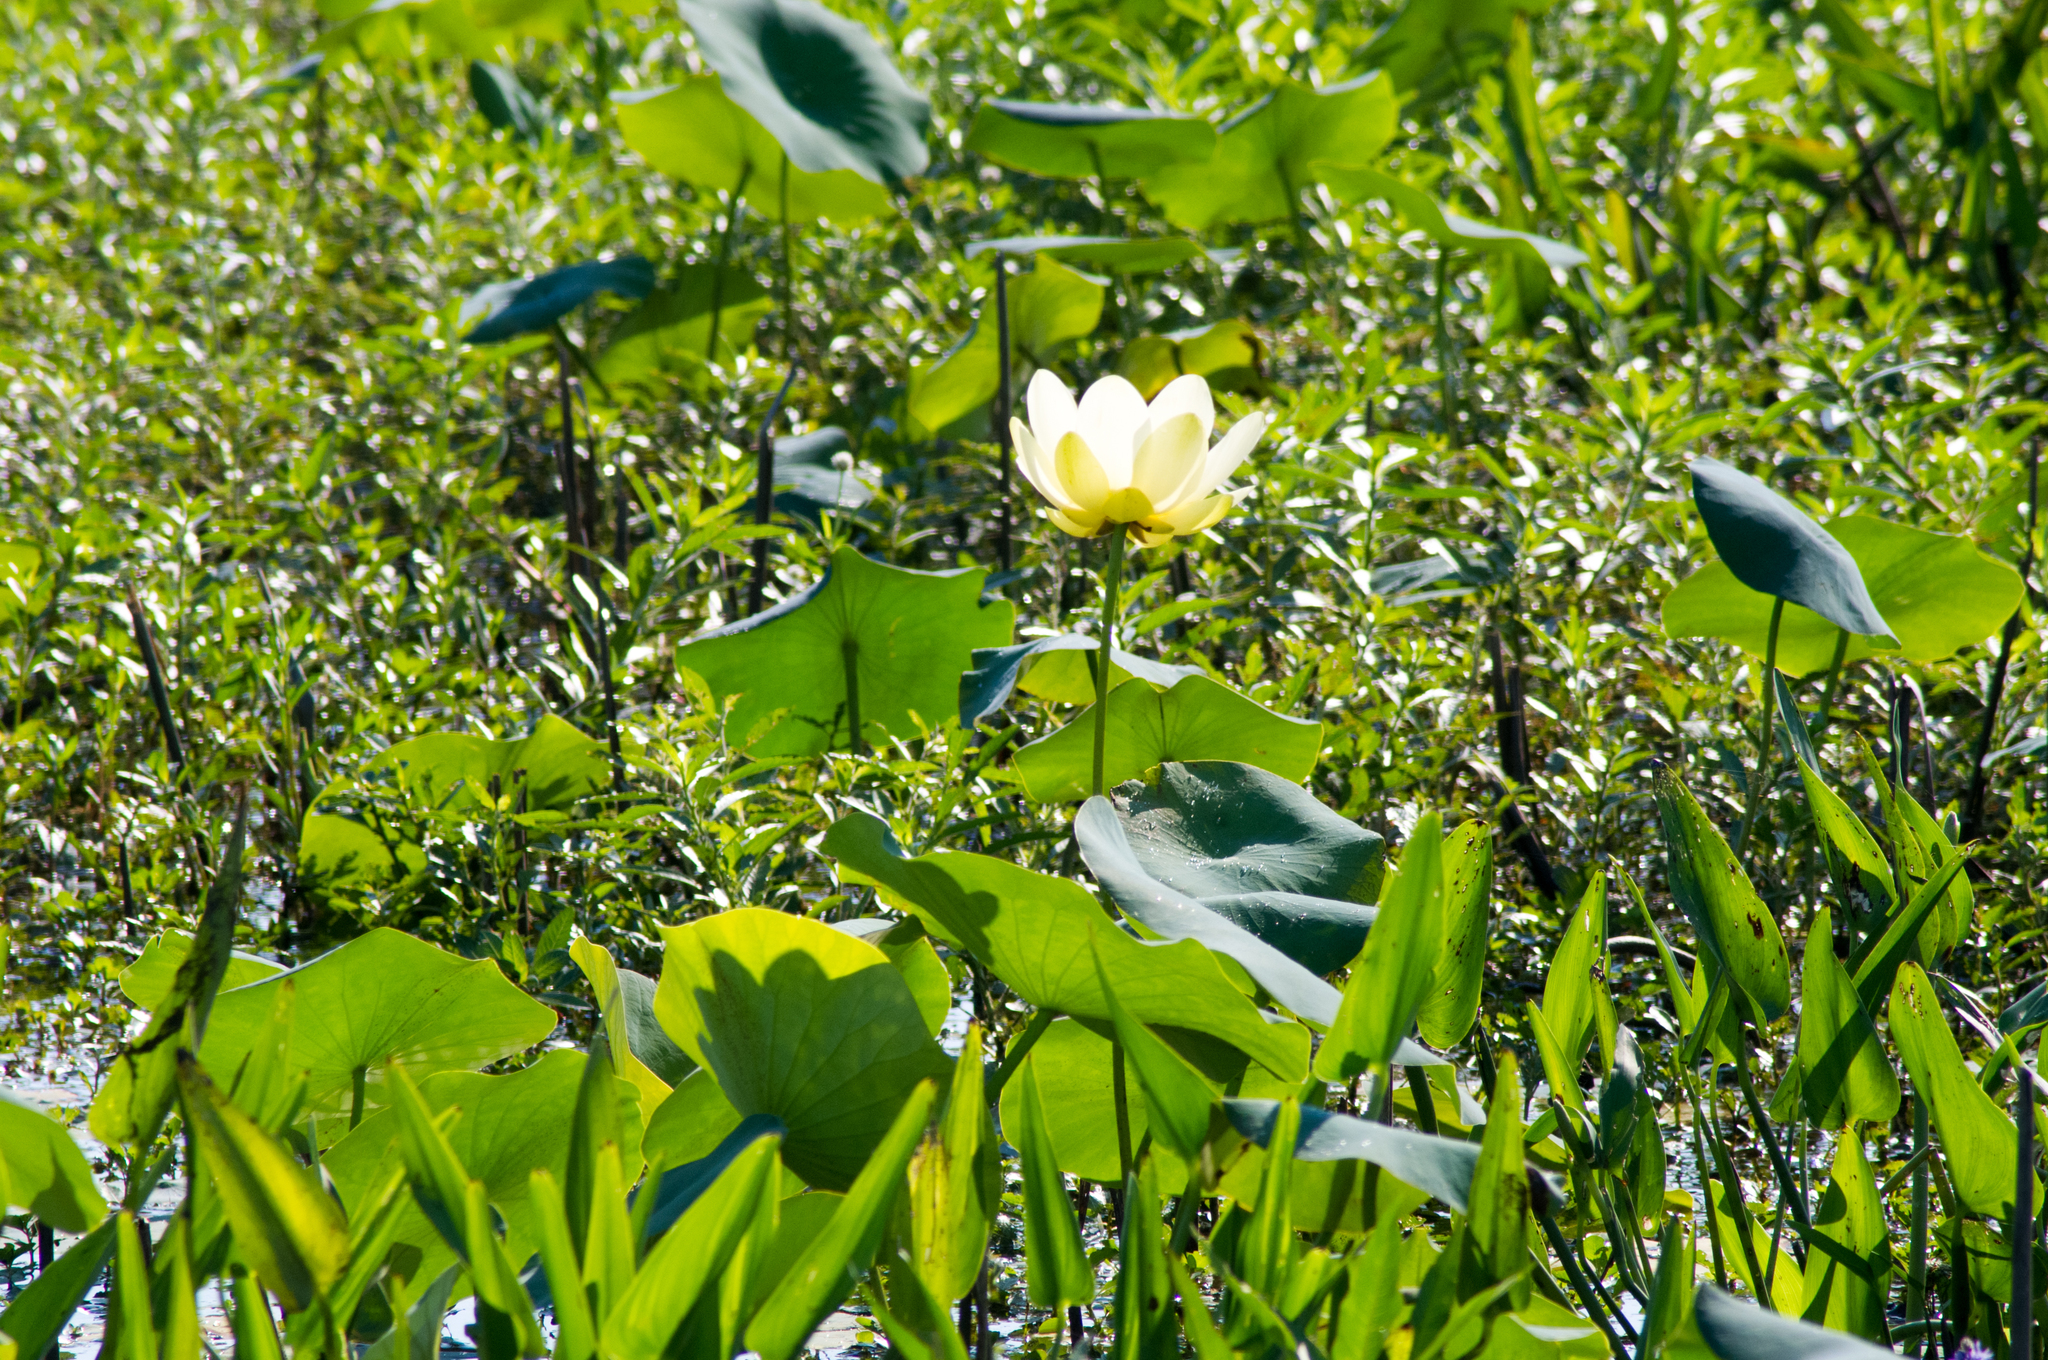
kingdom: Plantae
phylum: Tracheophyta
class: Magnoliopsida
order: Proteales
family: Nelumbonaceae
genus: Nelumbo
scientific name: Nelumbo lutea
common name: American lotus
